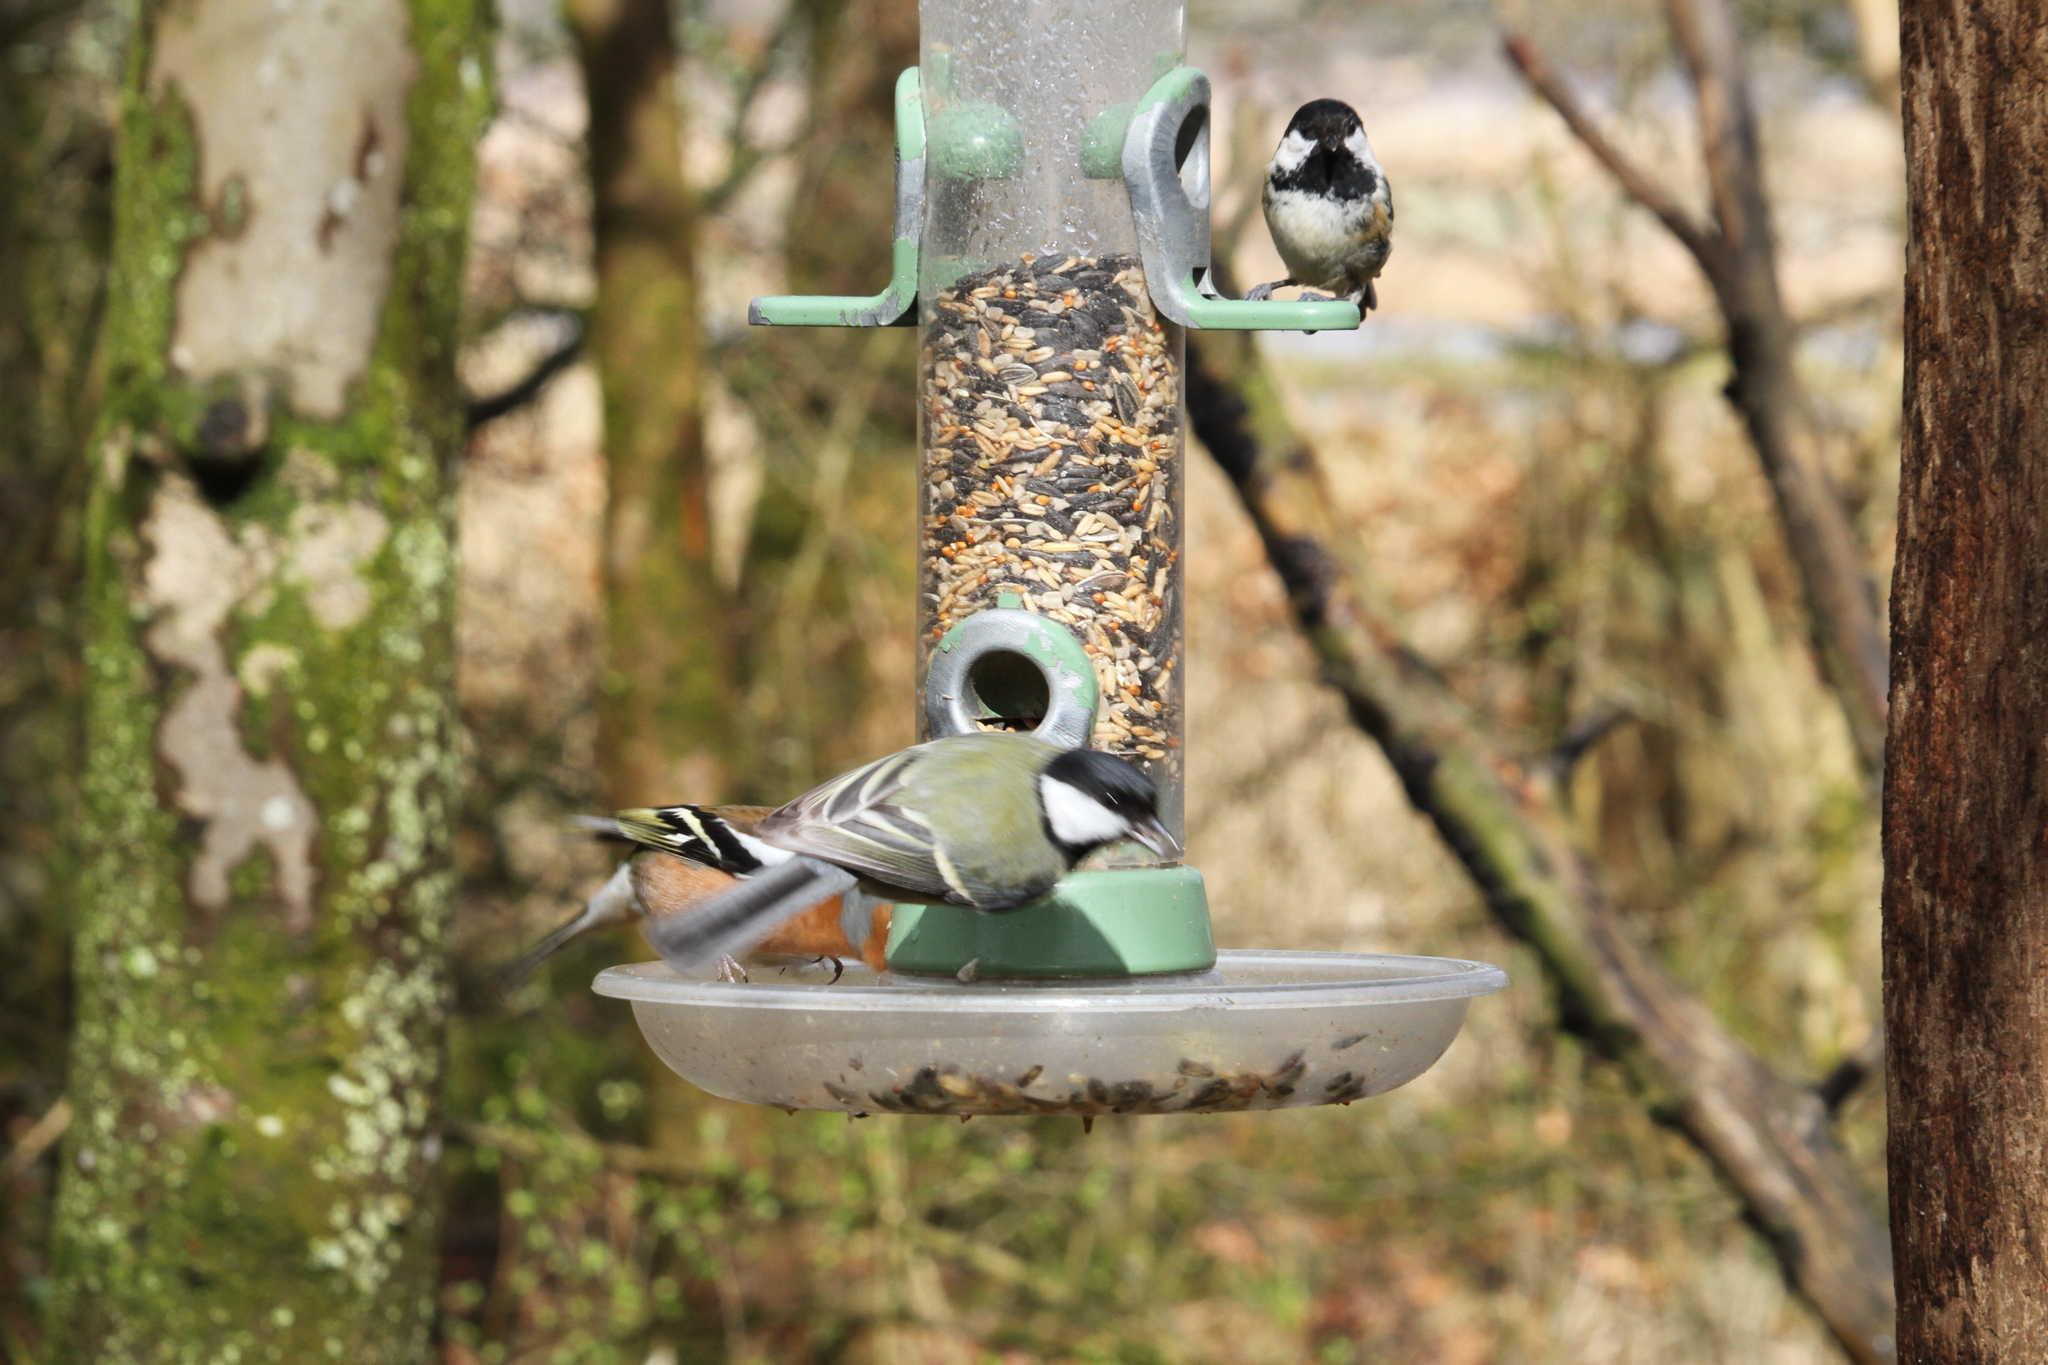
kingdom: Animalia
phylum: Chordata
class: Aves
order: Passeriformes
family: Paridae
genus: Parus
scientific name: Parus major
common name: Great tit
